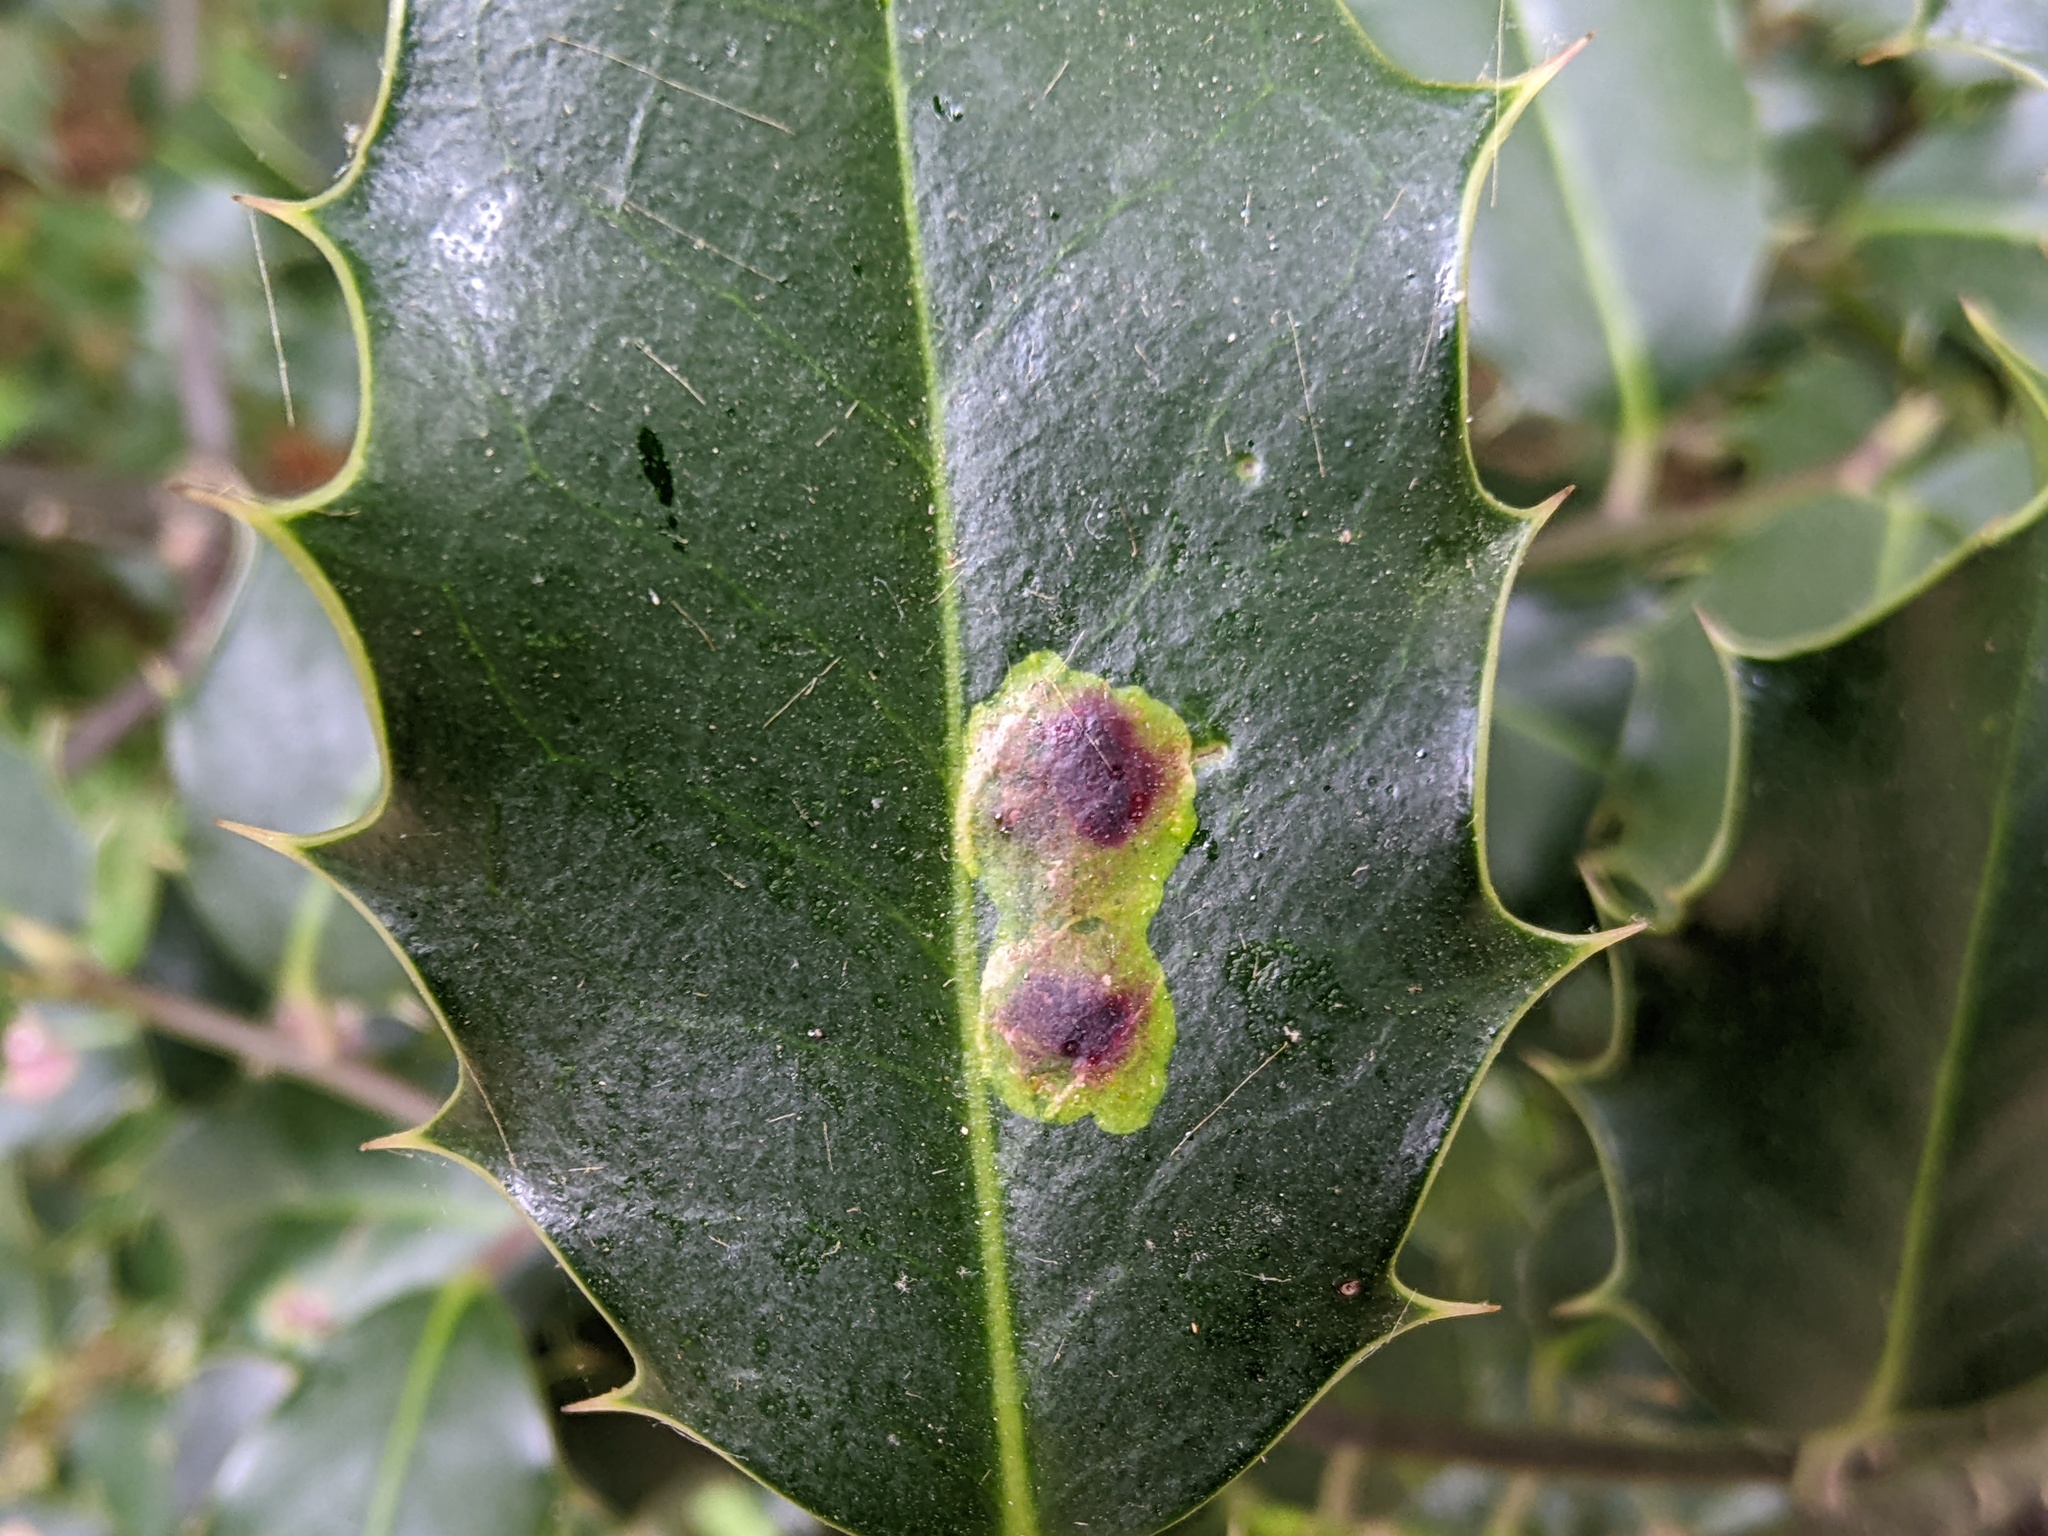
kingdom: Animalia
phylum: Arthropoda
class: Insecta
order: Diptera
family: Agromyzidae
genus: Phytomyza
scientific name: Phytomyza ilicis
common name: Holly leafminer
